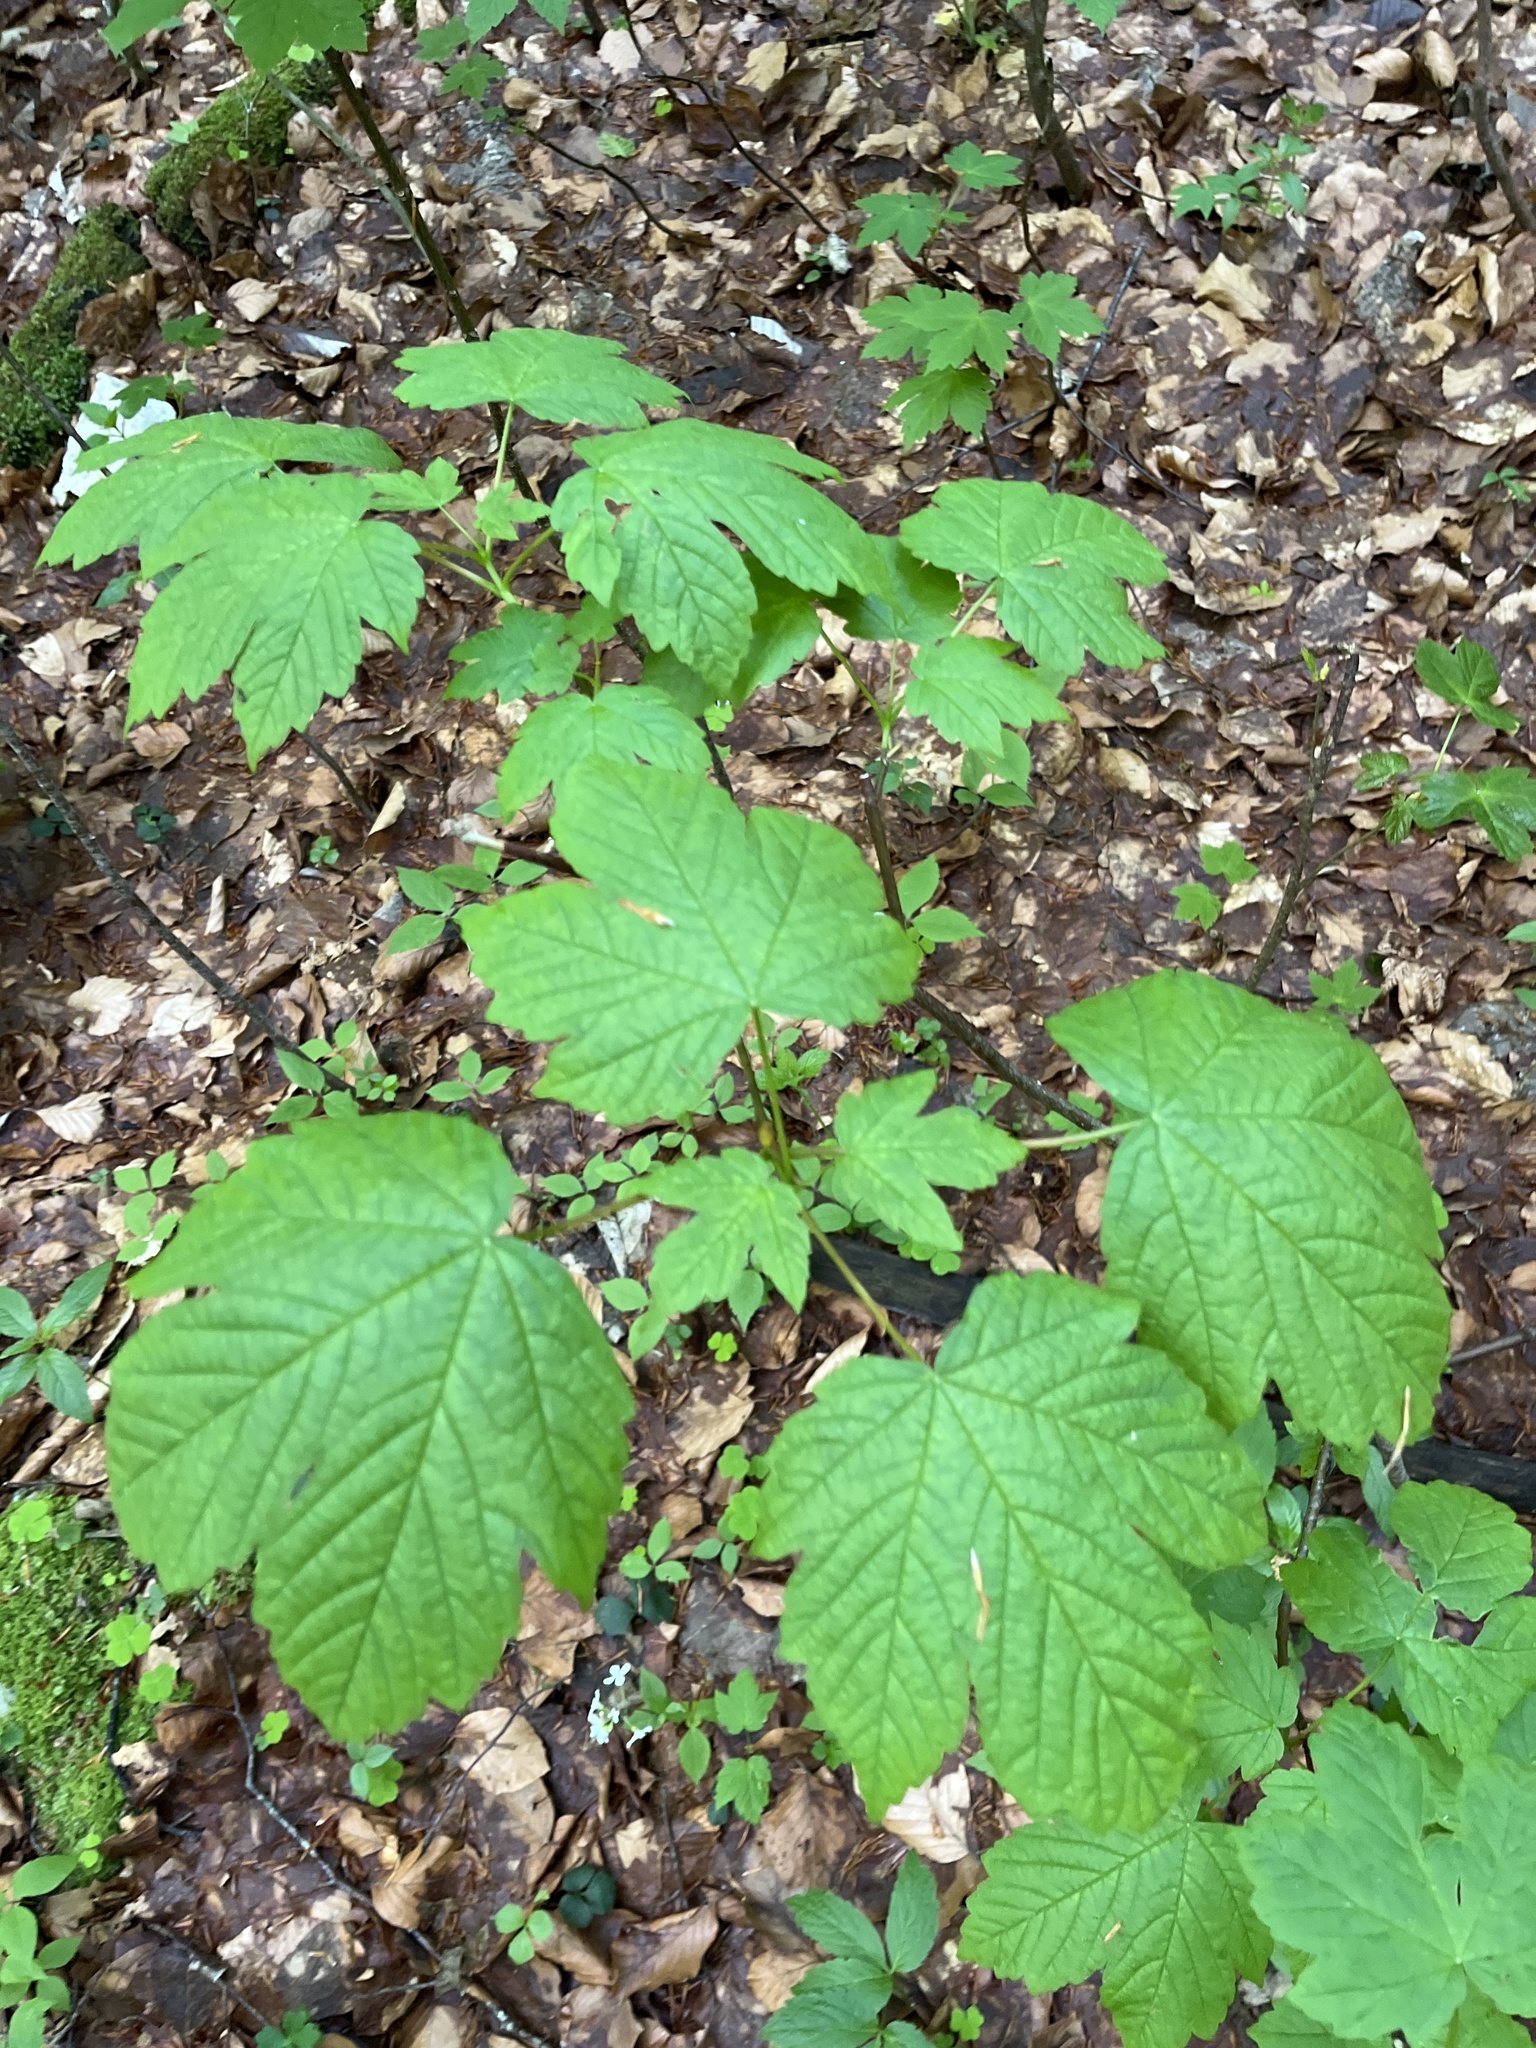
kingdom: Plantae
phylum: Tracheophyta
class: Magnoliopsida
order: Sapindales
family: Sapindaceae
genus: Acer
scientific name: Acer pseudoplatanus
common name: Sycamore
